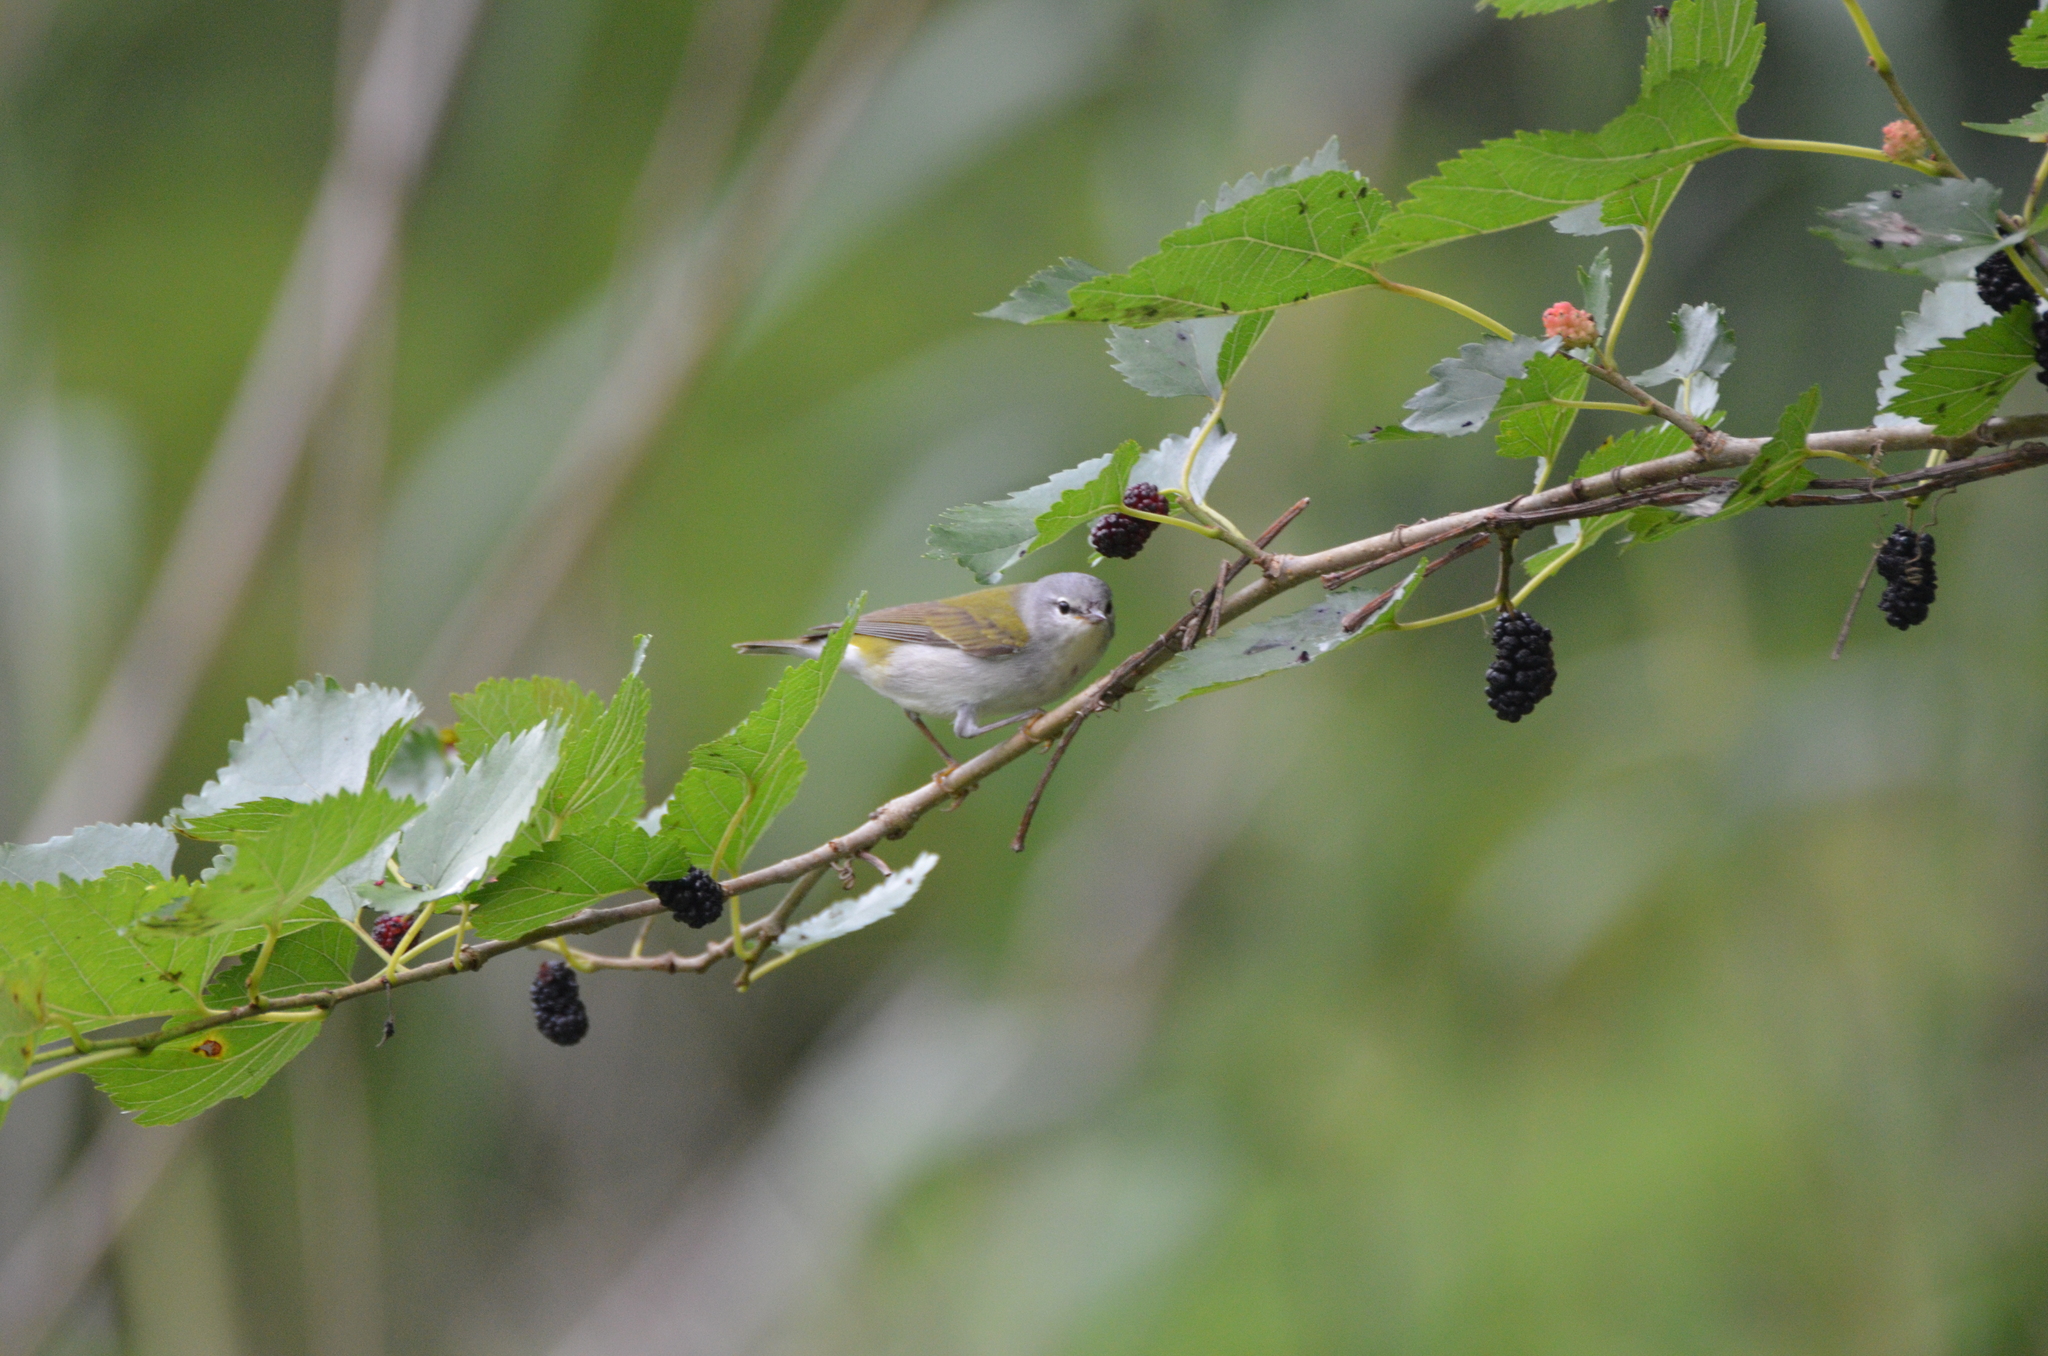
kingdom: Animalia
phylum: Chordata
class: Aves
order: Passeriformes
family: Parulidae
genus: Leiothlypis
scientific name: Leiothlypis peregrina
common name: Tennessee warbler
